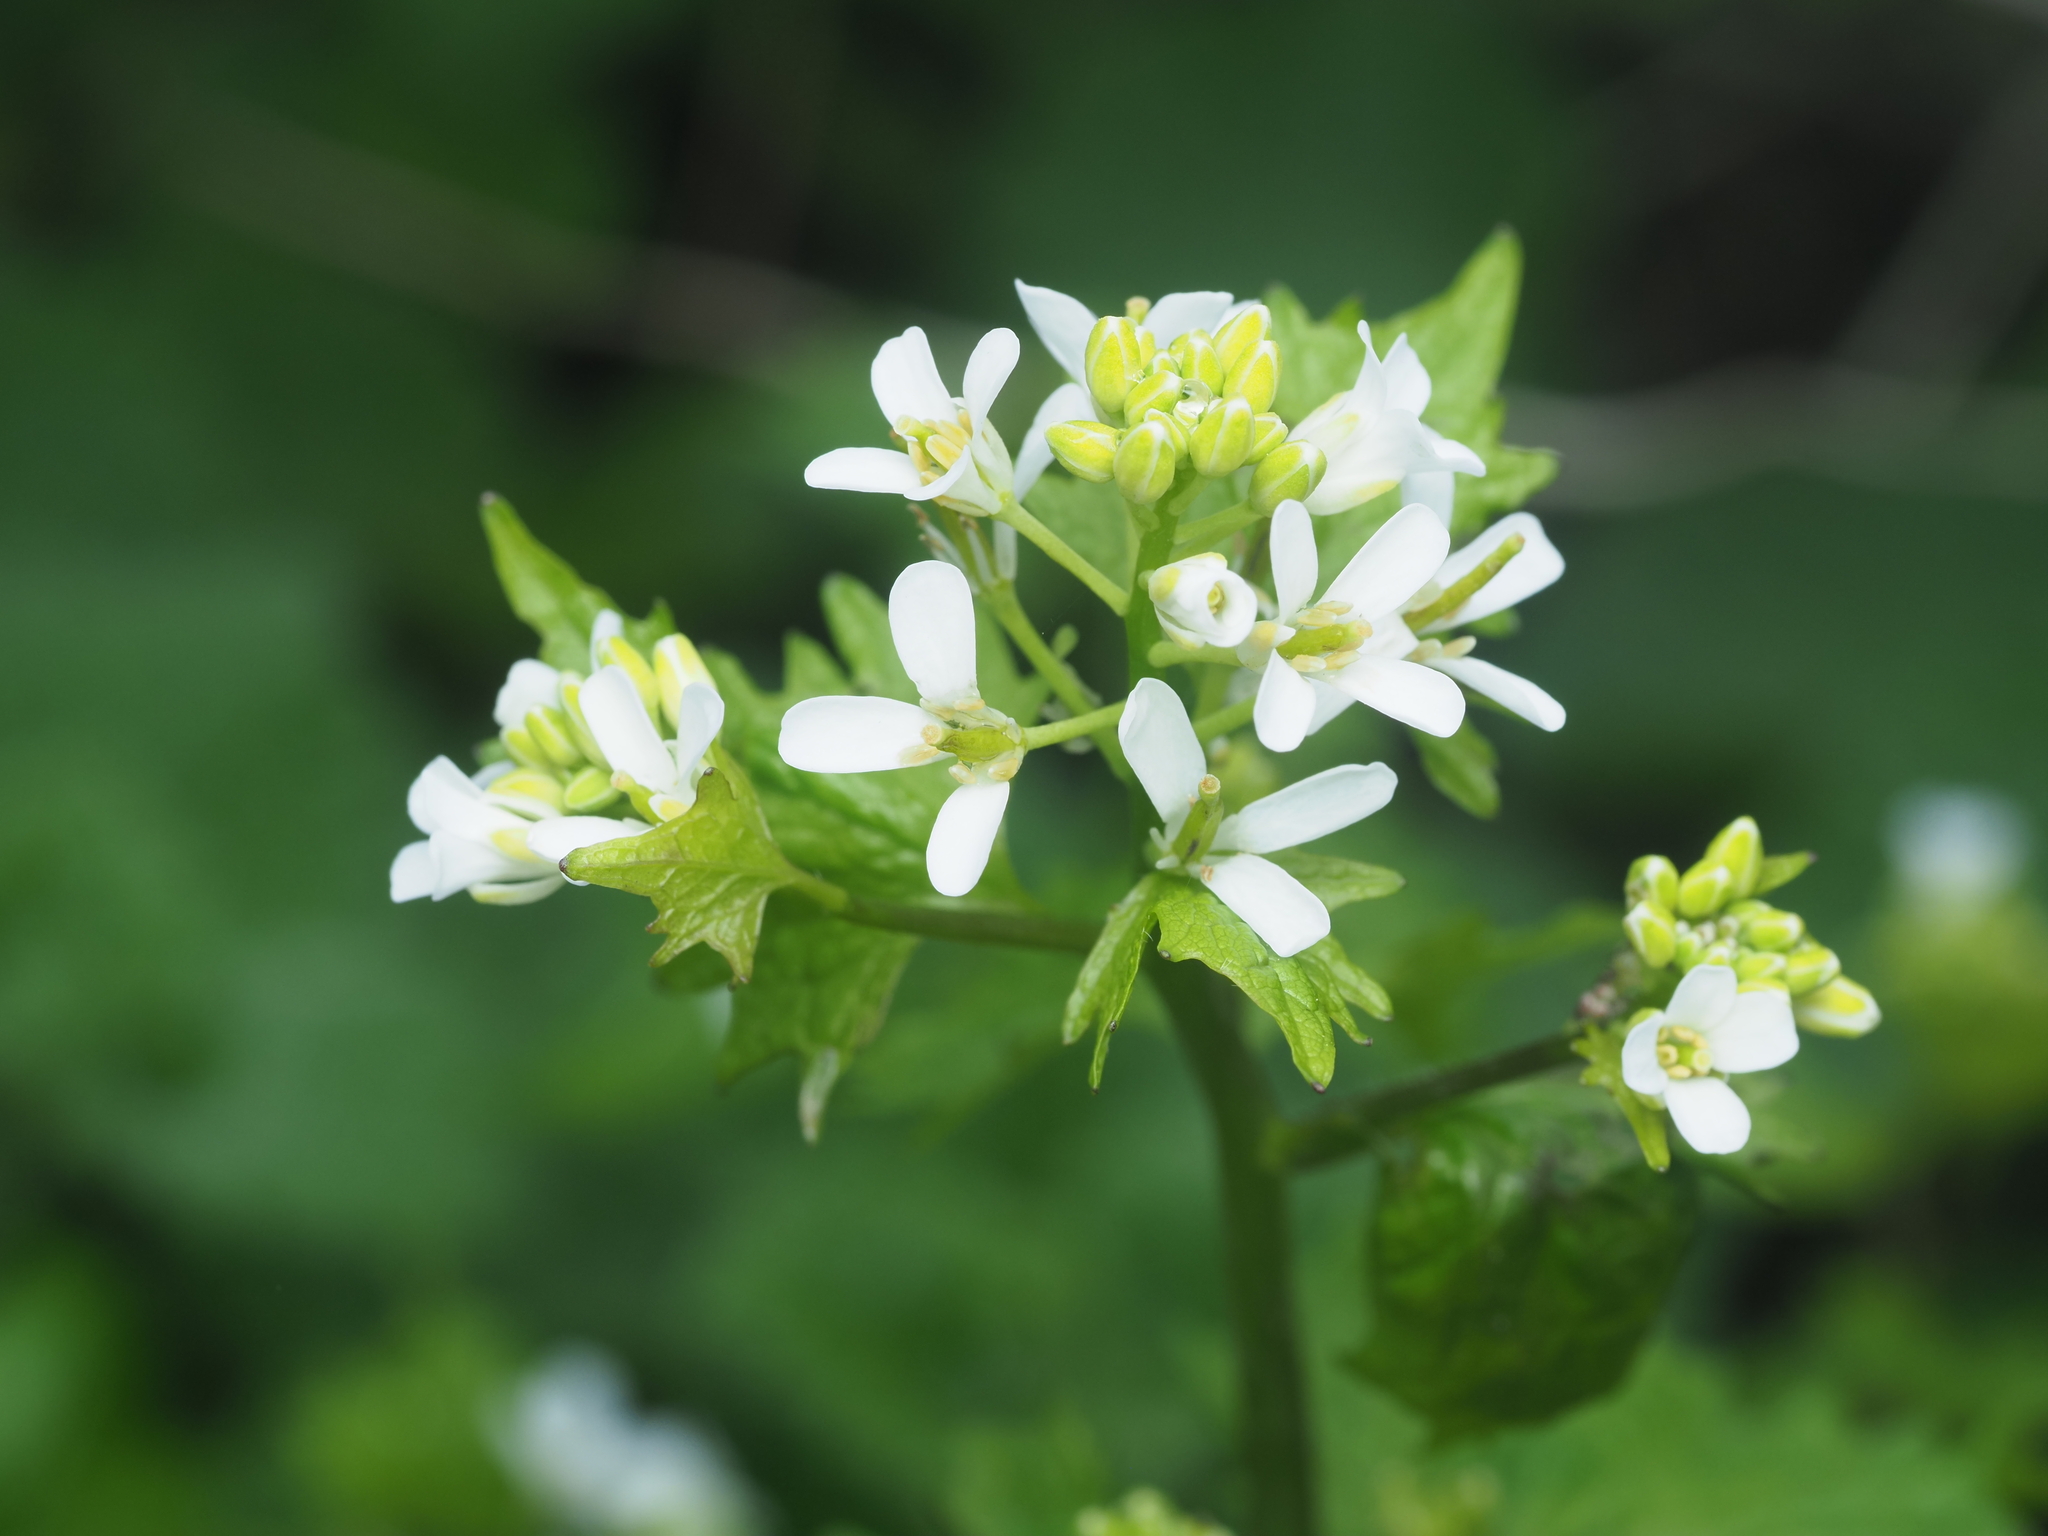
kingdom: Plantae
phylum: Tracheophyta
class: Magnoliopsida
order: Brassicales
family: Brassicaceae
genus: Alliaria
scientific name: Alliaria petiolata
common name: Garlic mustard
